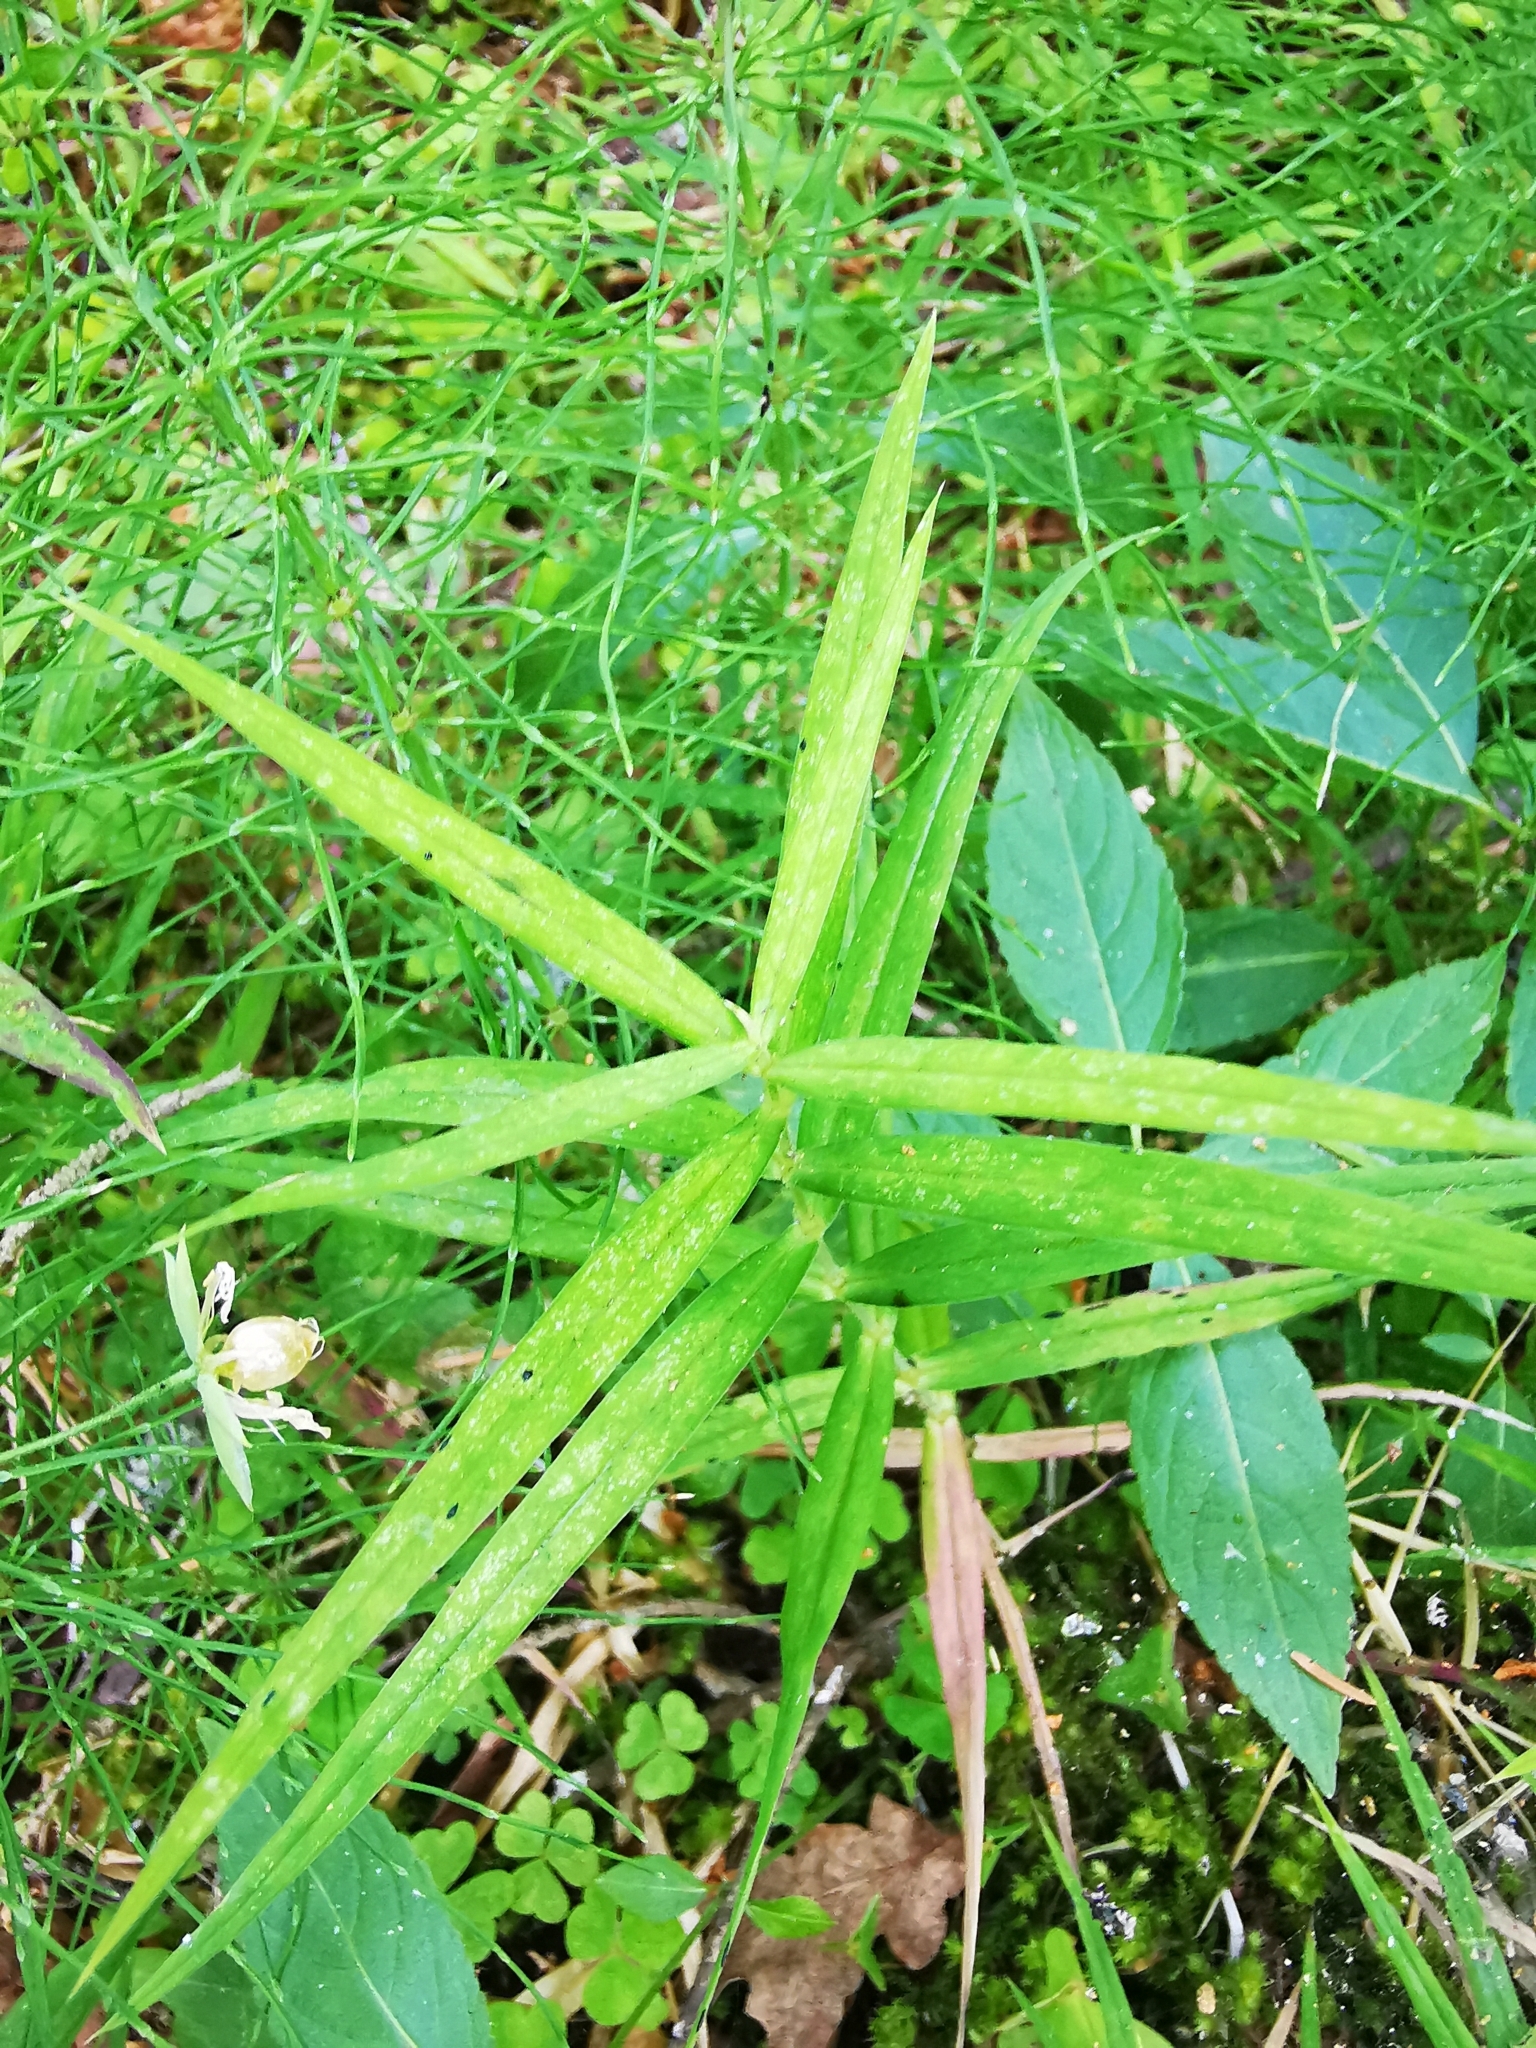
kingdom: Plantae
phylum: Tracheophyta
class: Magnoliopsida
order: Caryophyllales
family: Caryophyllaceae
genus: Rabelera
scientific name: Rabelera holostea
